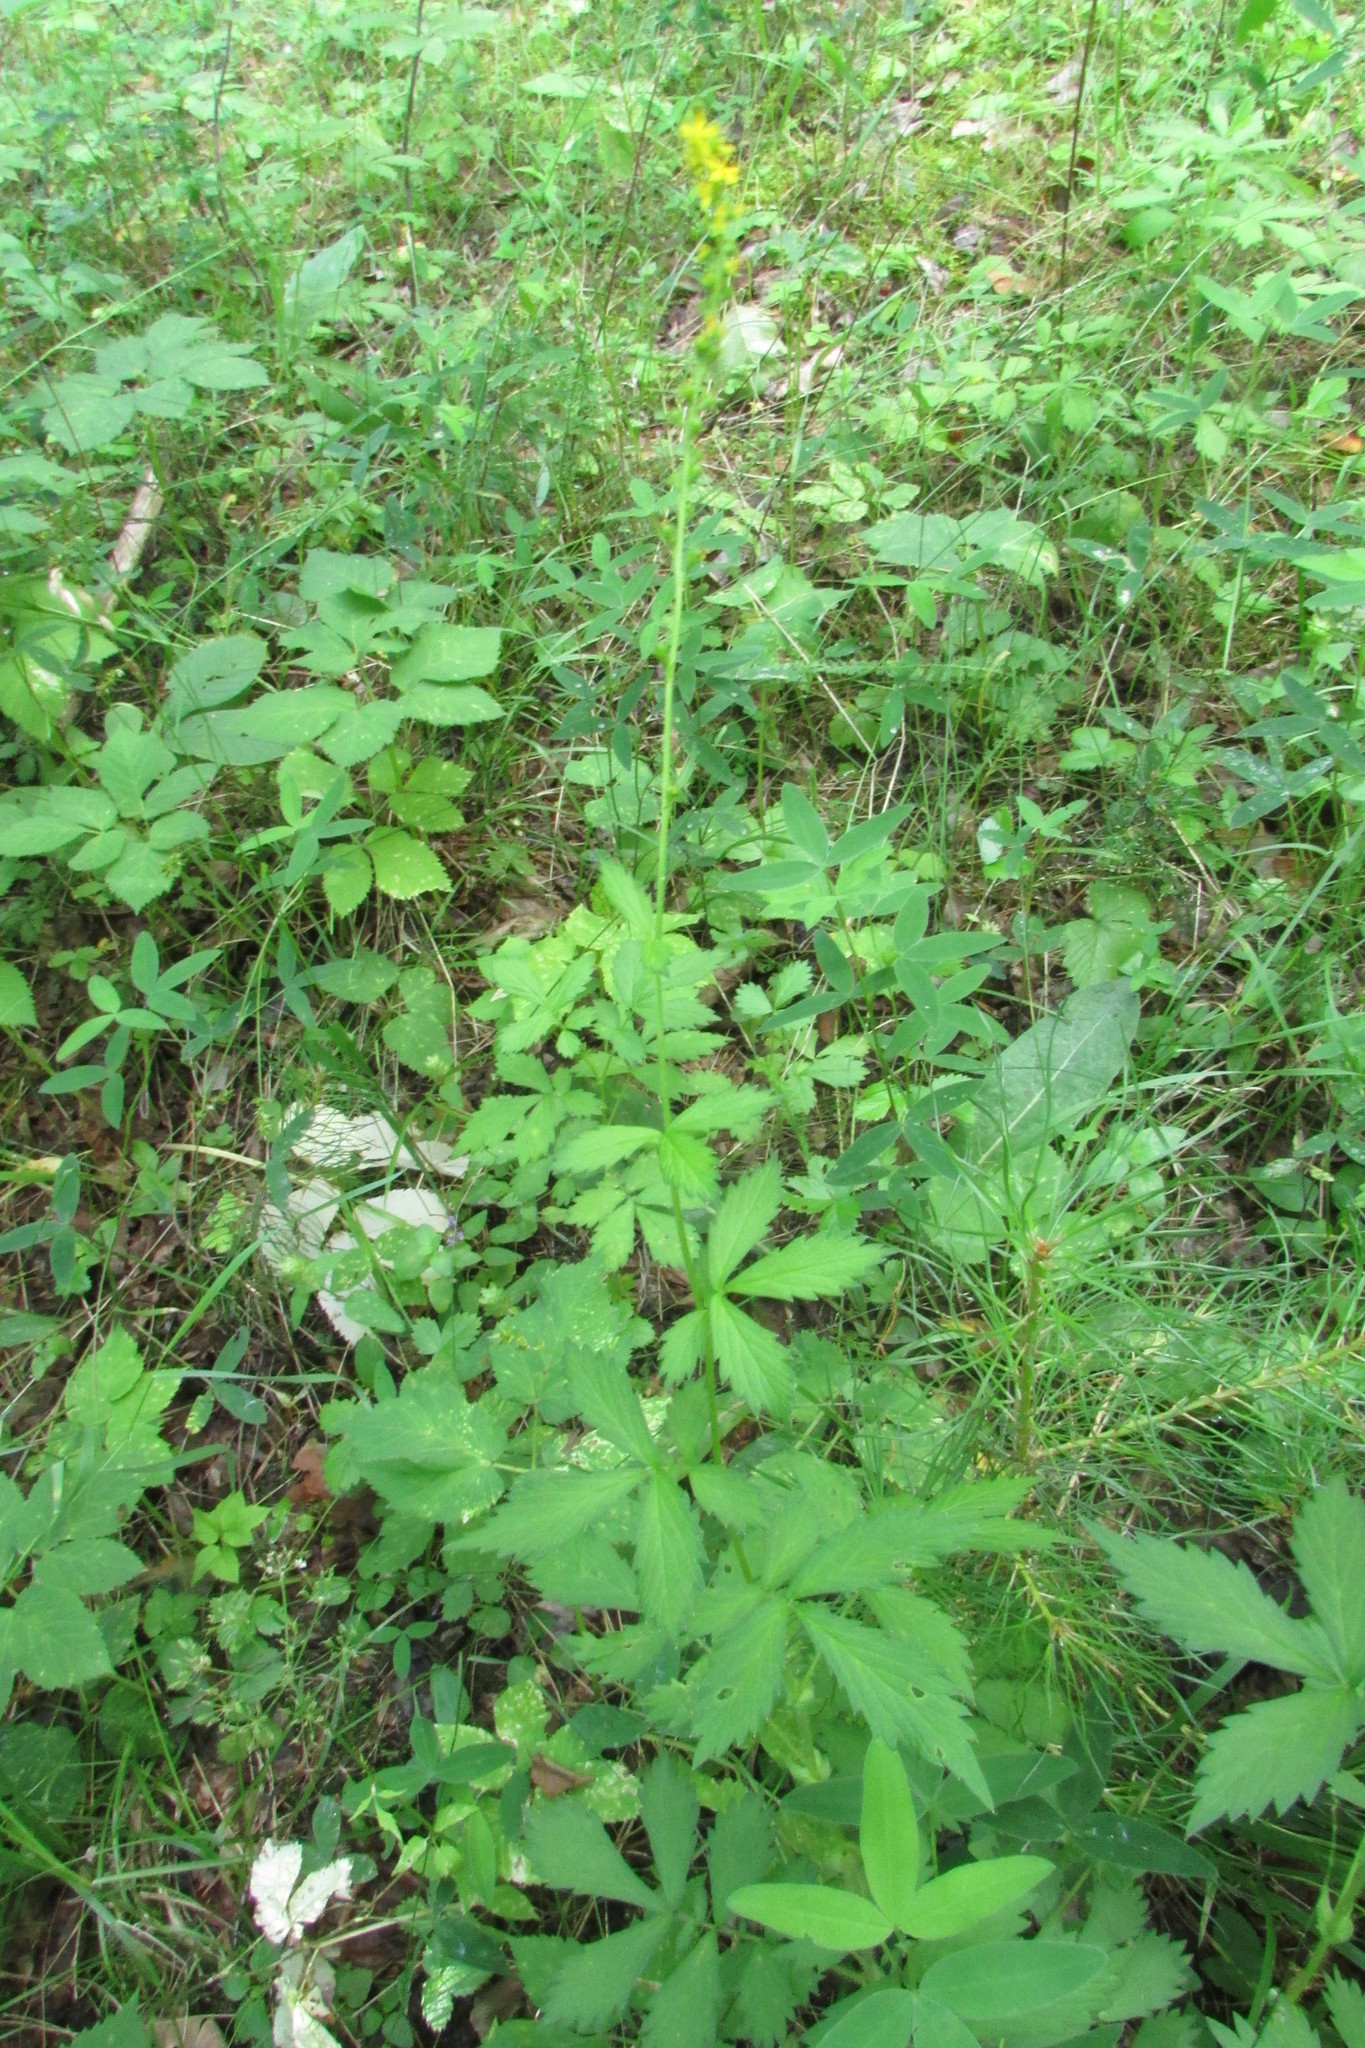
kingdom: Plantae
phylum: Tracheophyta
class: Magnoliopsida
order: Rosales
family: Rosaceae
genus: Agrimonia
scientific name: Agrimonia pilosa
